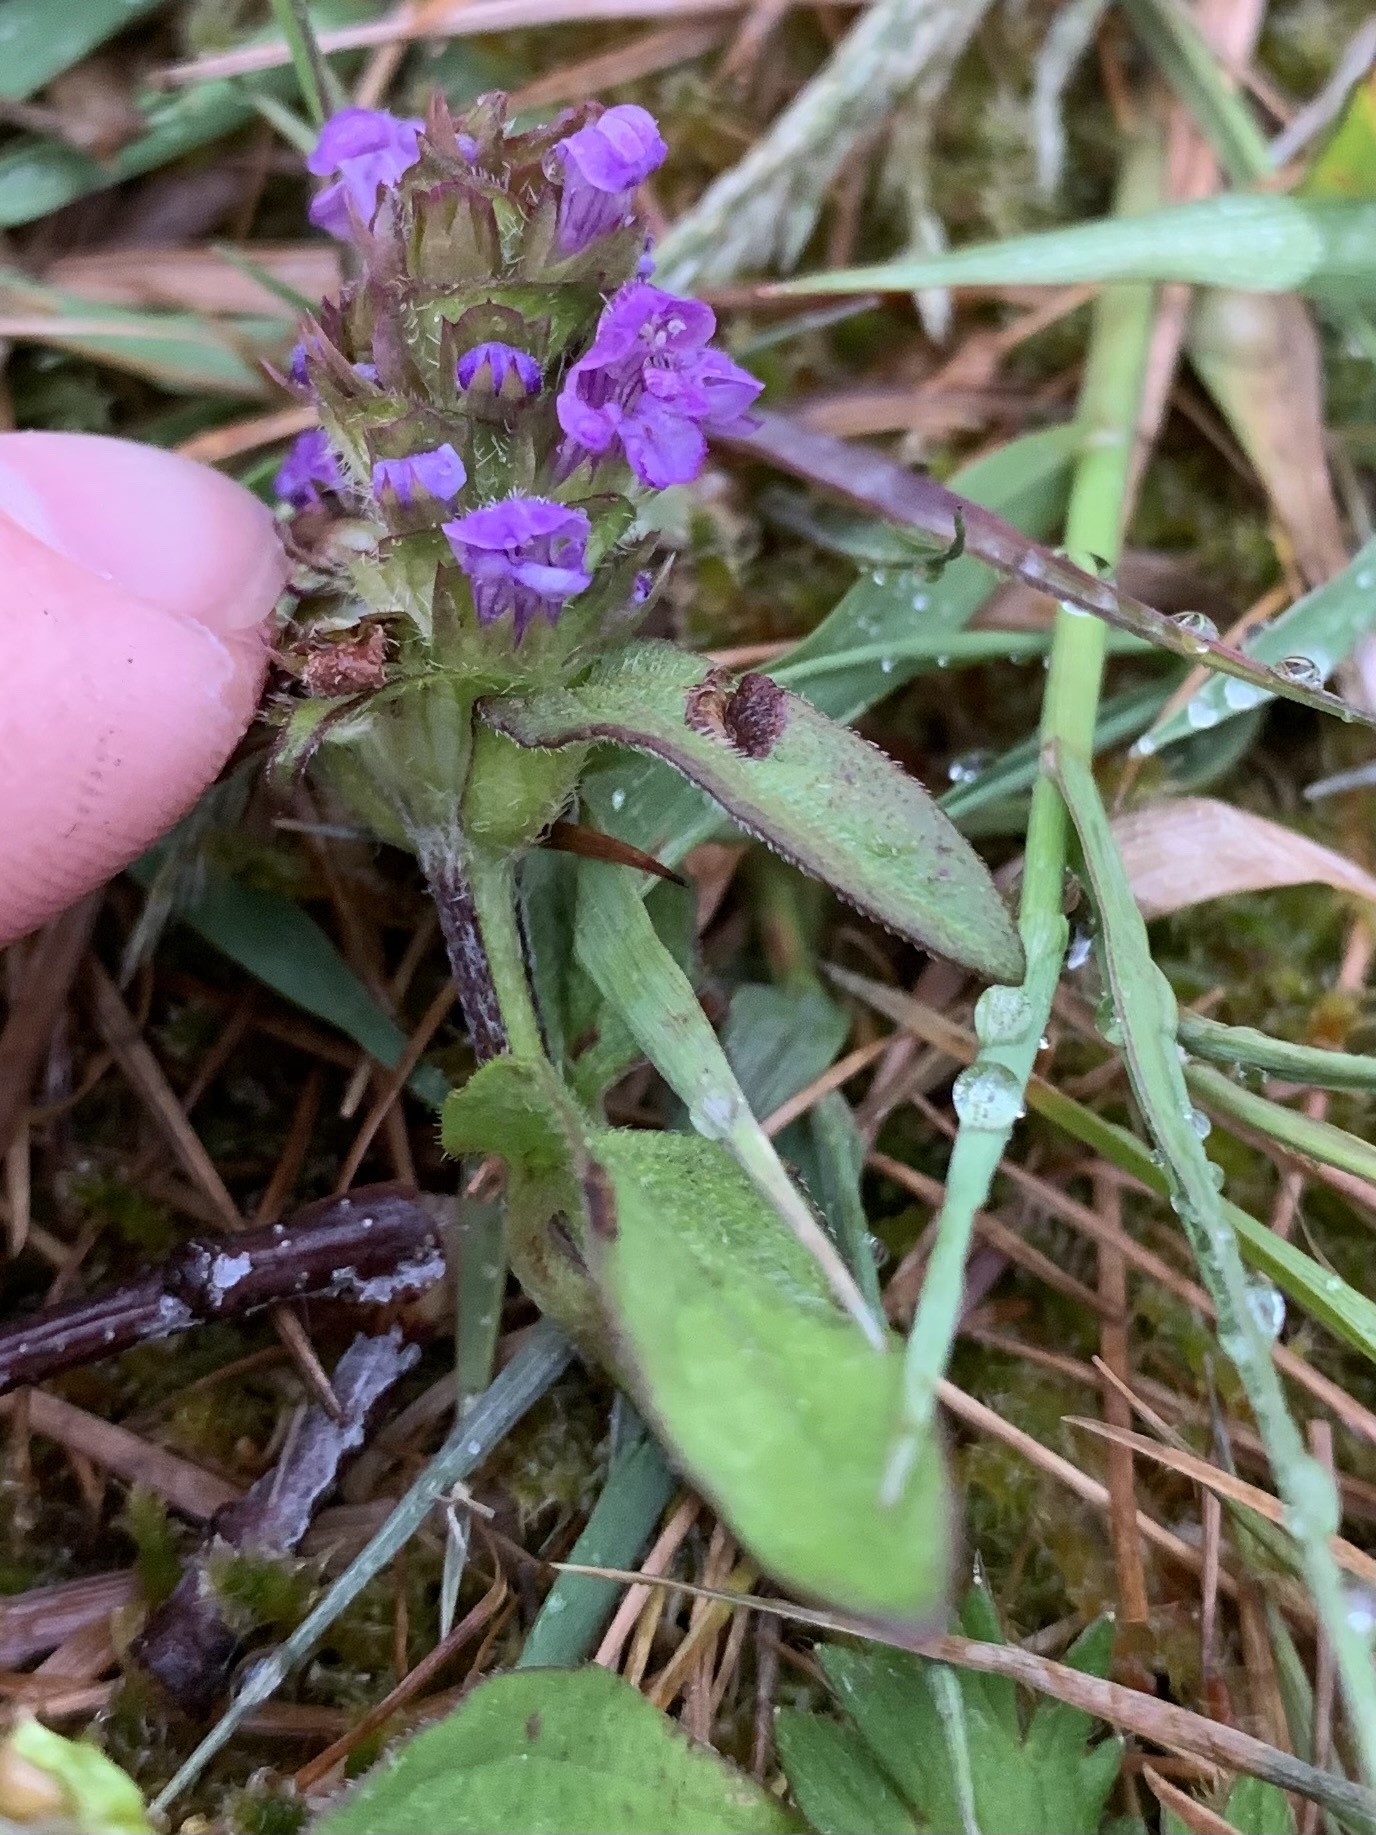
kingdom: Plantae
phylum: Tracheophyta
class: Magnoliopsida
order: Lamiales
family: Lamiaceae
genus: Prunella
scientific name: Prunella vulgaris
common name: Heal-all
